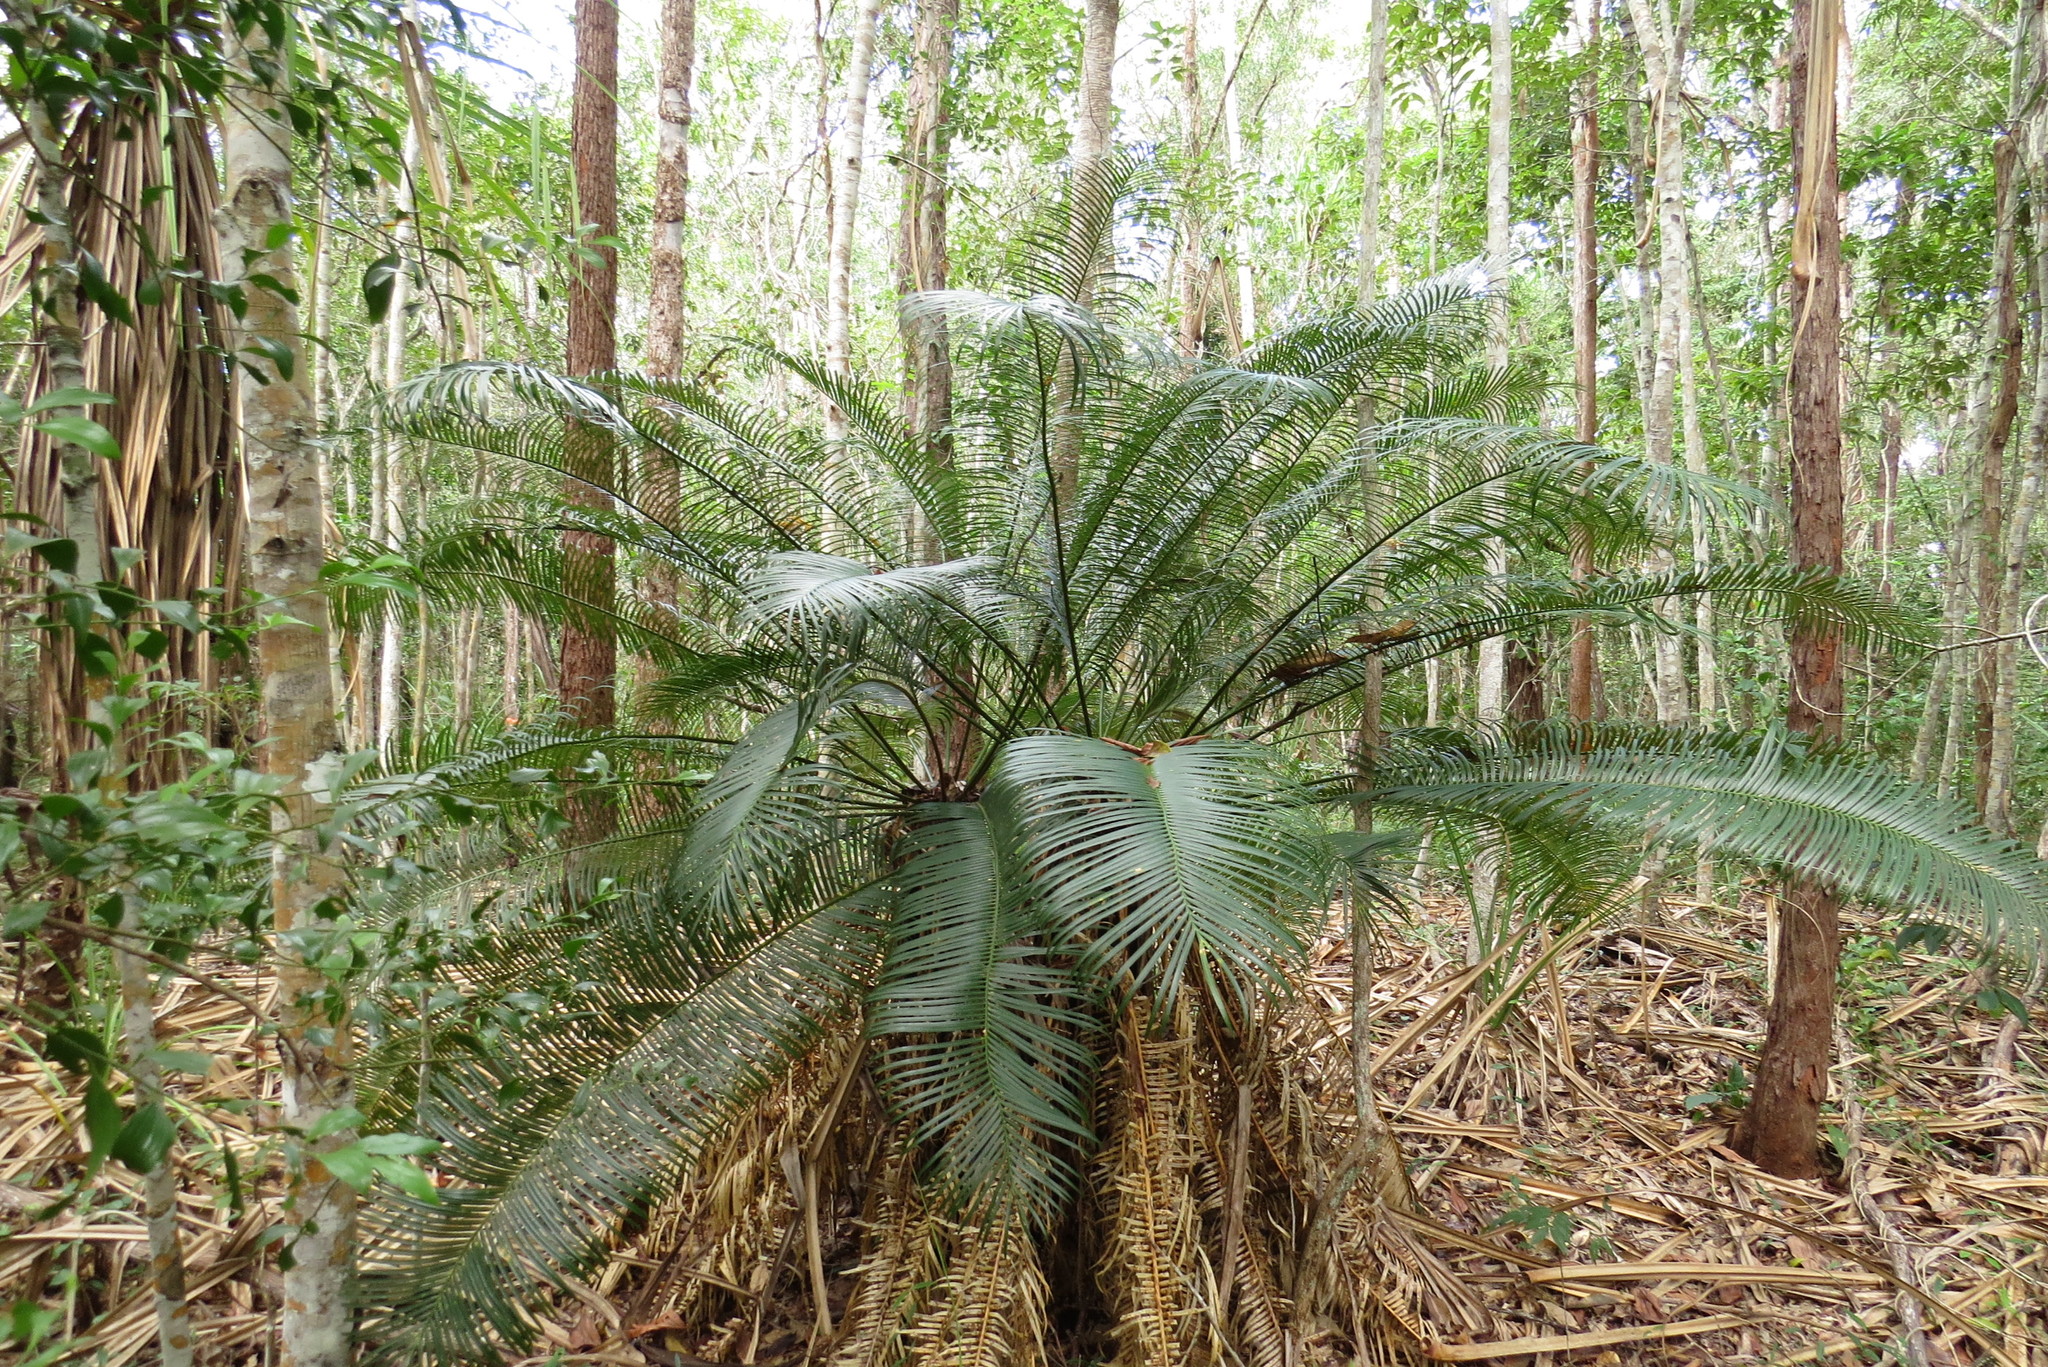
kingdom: Plantae
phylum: Tracheophyta
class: Cycadopsida
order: Cycadales
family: Cycadaceae
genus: Cycas
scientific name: Cycas media
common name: Queensland cycas
